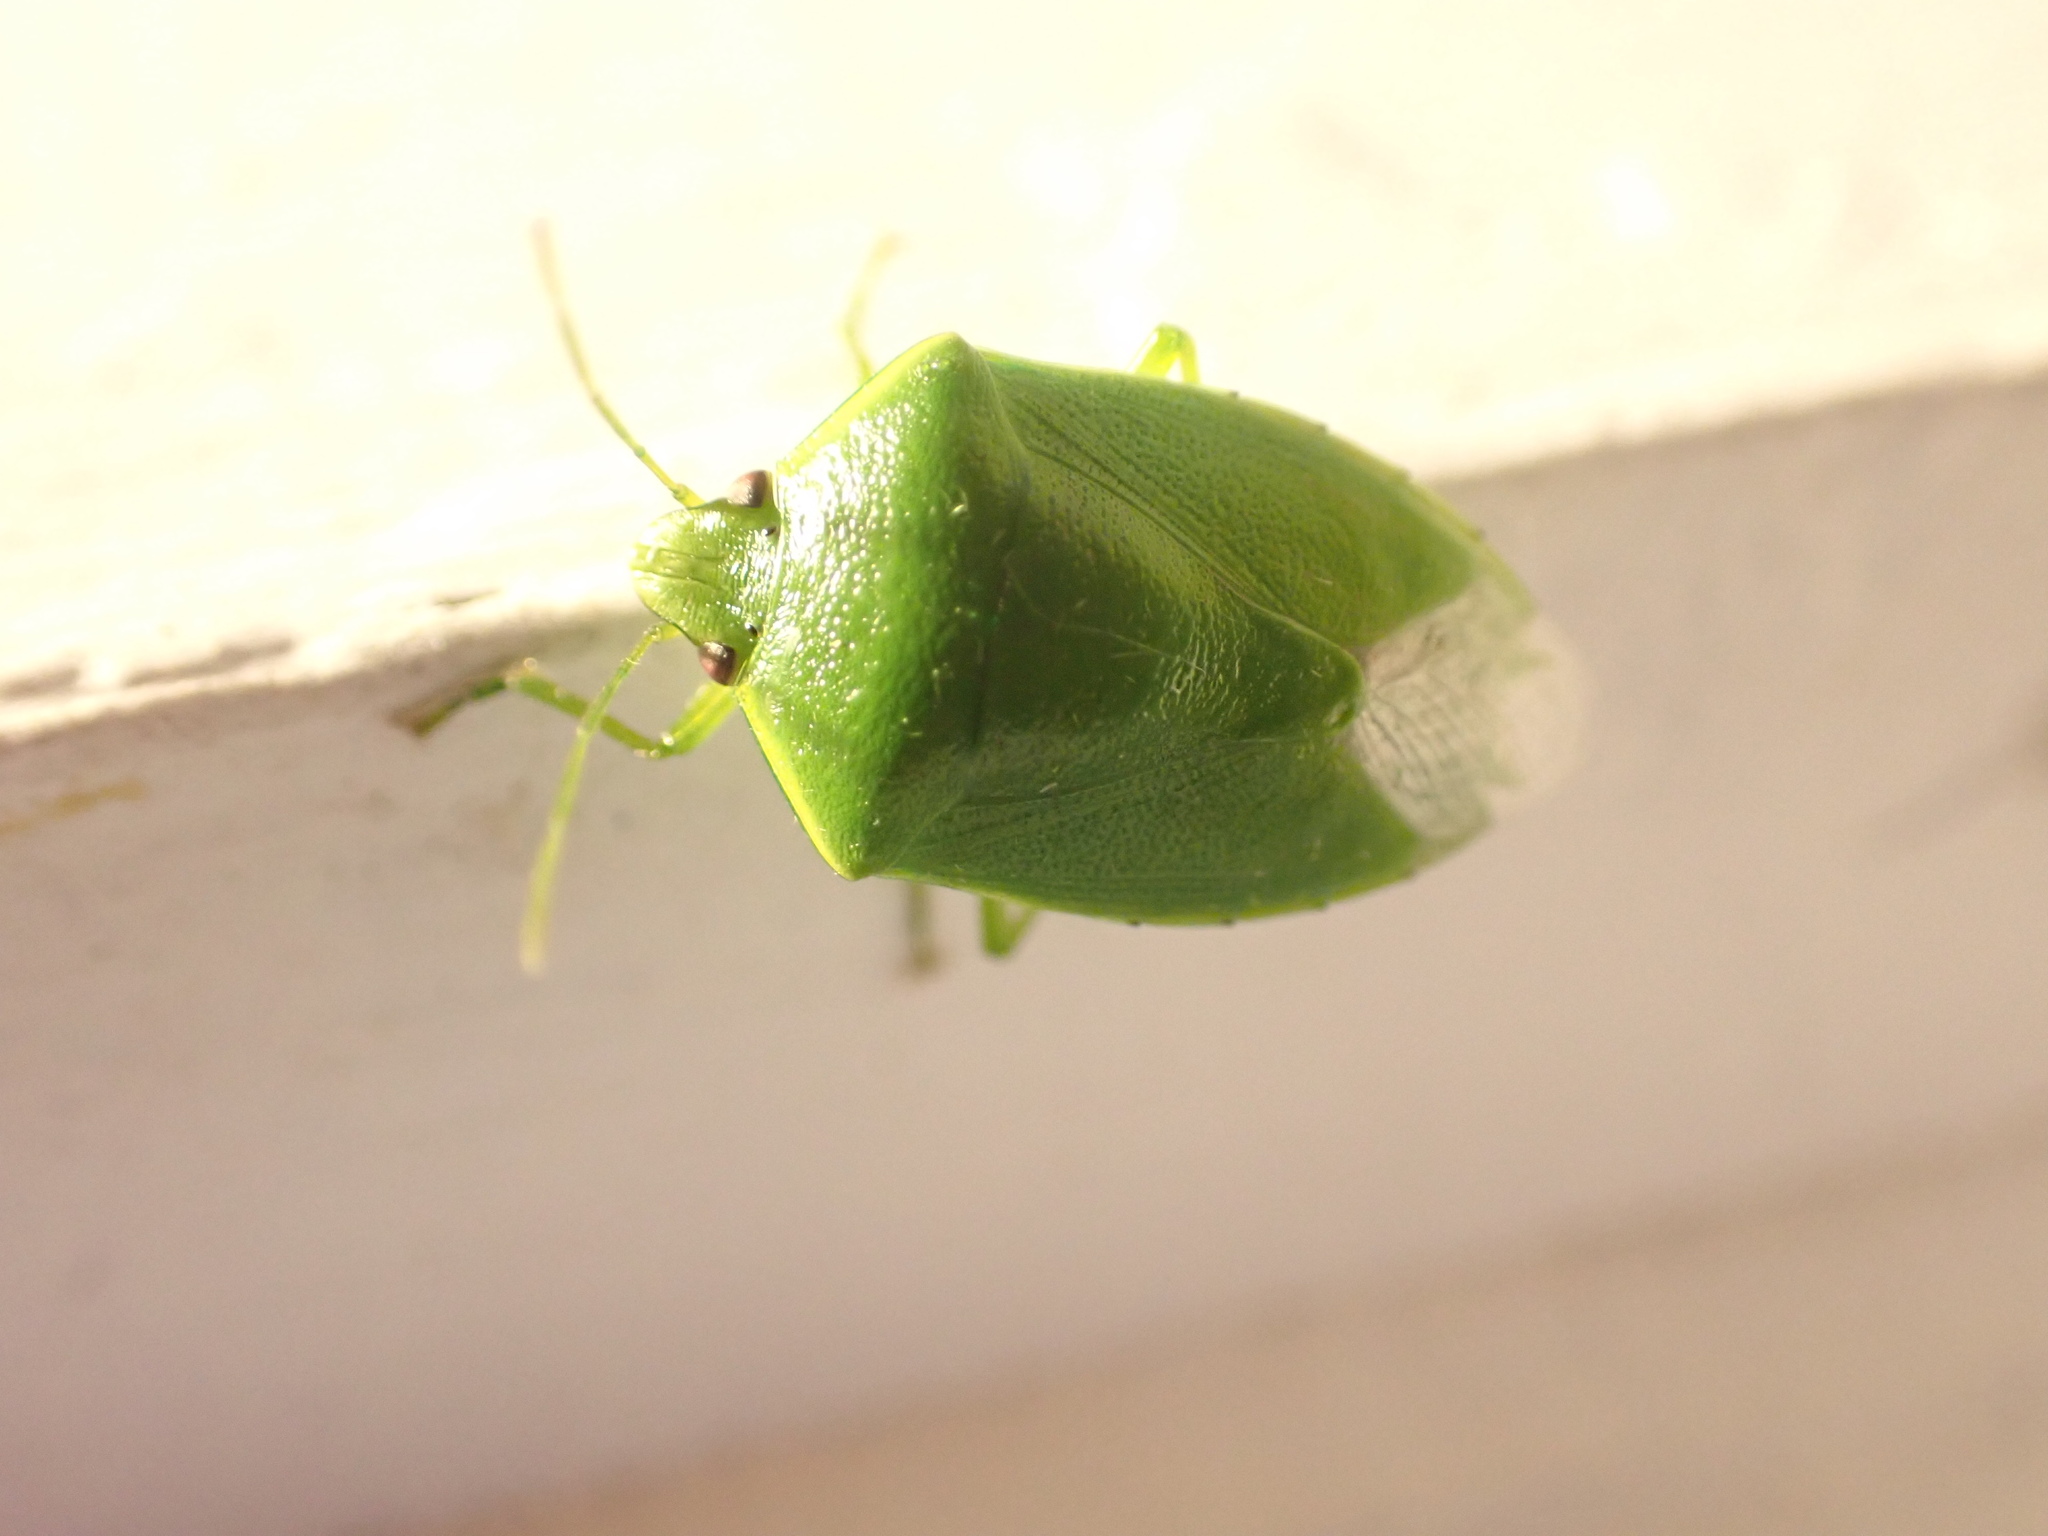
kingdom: Animalia
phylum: Arthropoda
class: Insecta
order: Hemiptera
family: Pentatomidae
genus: Glaucias
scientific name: Glaucias amyota
